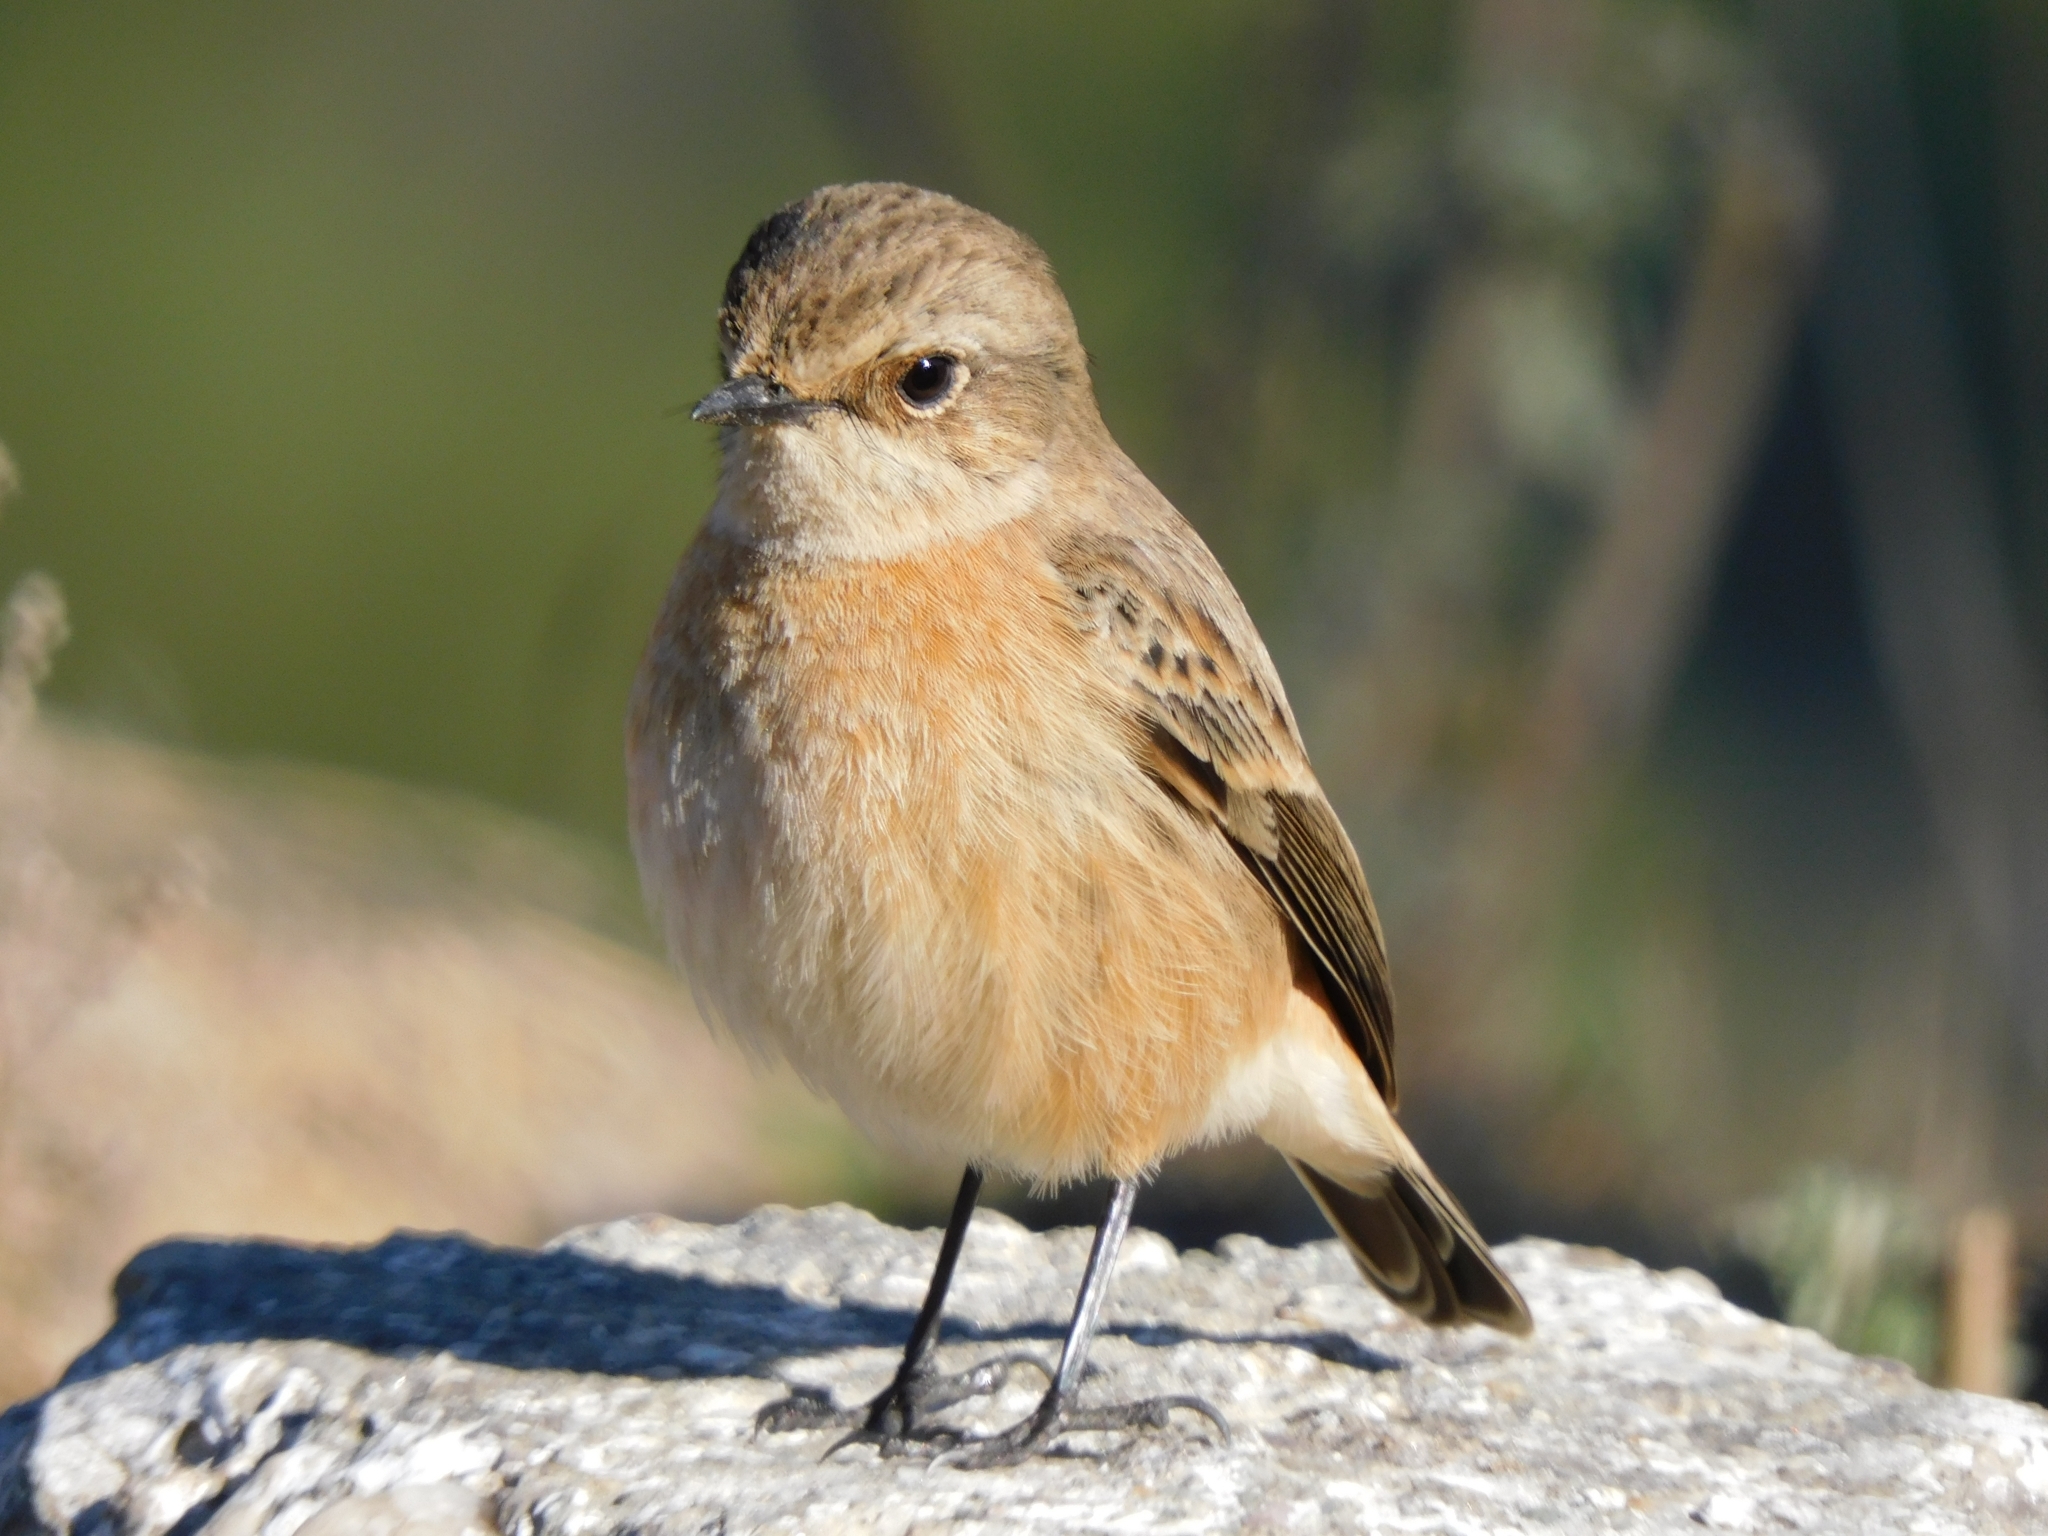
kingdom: Animalia
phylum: Chordata
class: Aves
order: Passeriformes
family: Muscicapidae
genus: Saxicola
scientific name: Saxicola maurus
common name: Siberian stonechat
